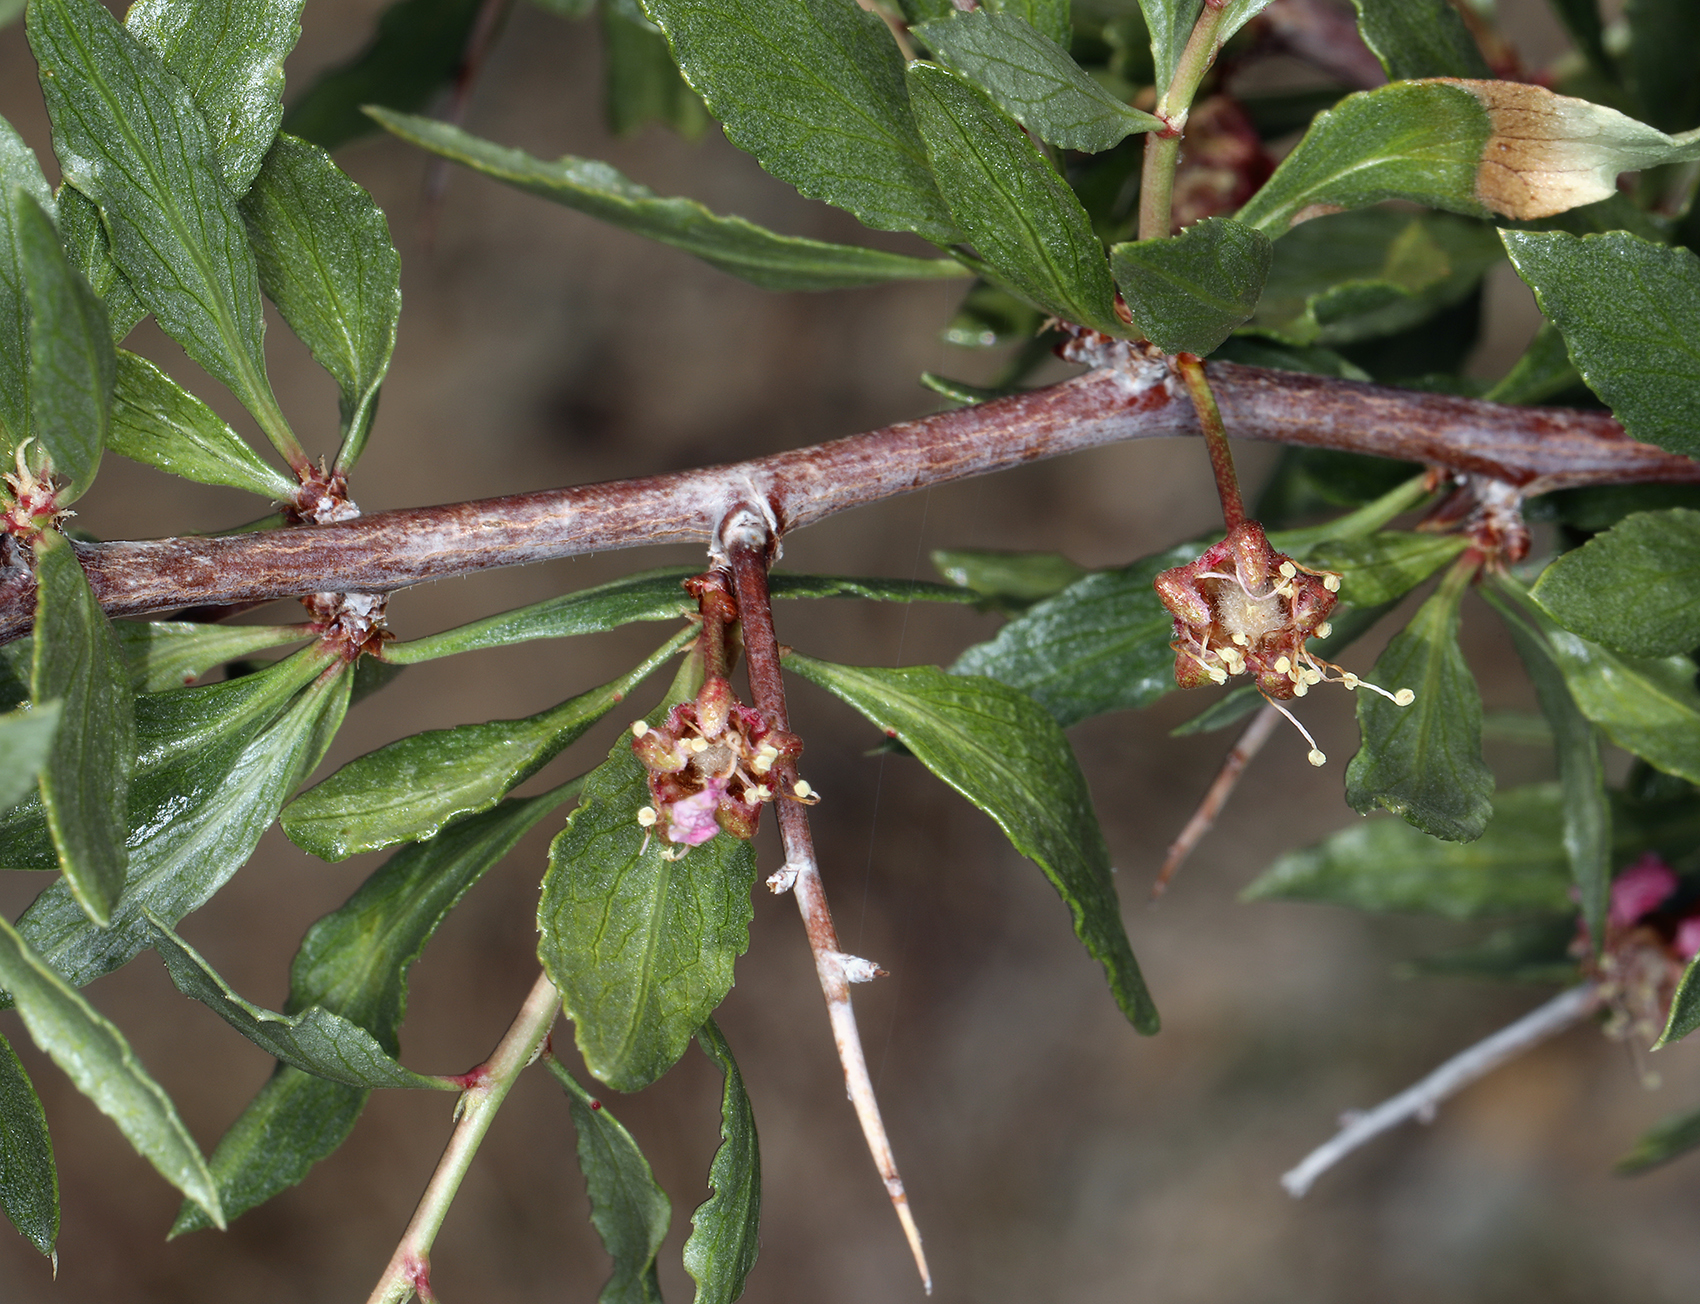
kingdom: Plantae
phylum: Tracheophyta
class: Magnoliopsida
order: Rosales
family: Rosaceae
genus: Prunus
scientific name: Prunus andersonii
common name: Desert peach
